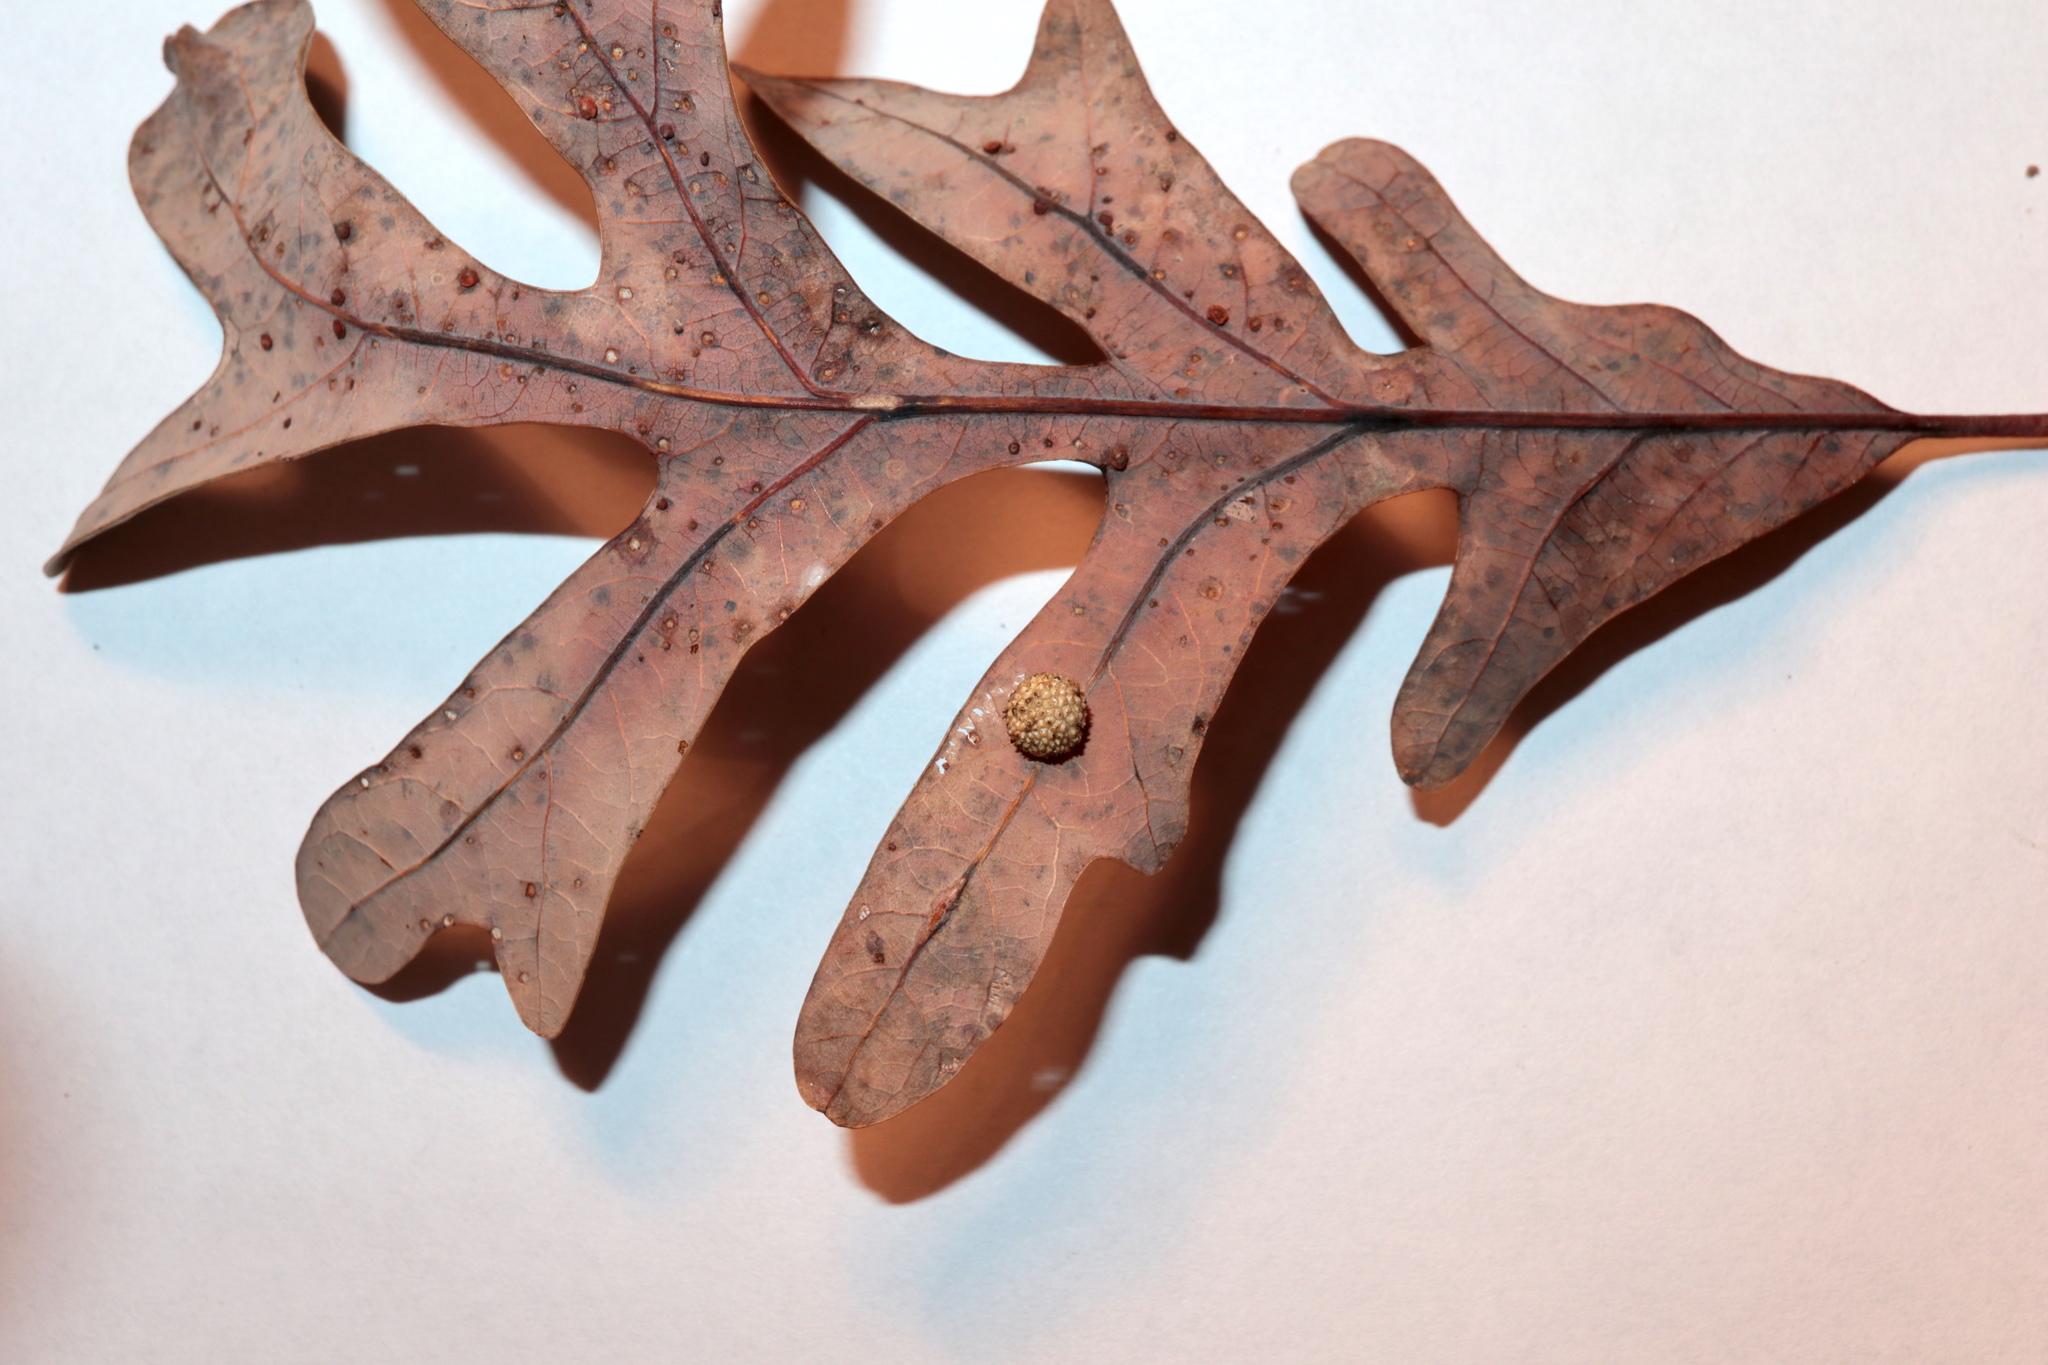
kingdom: Animalia
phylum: Arthropoda
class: Insecta
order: Hymenoptera
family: Cynipidae
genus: Acraspis
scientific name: Acraspis
